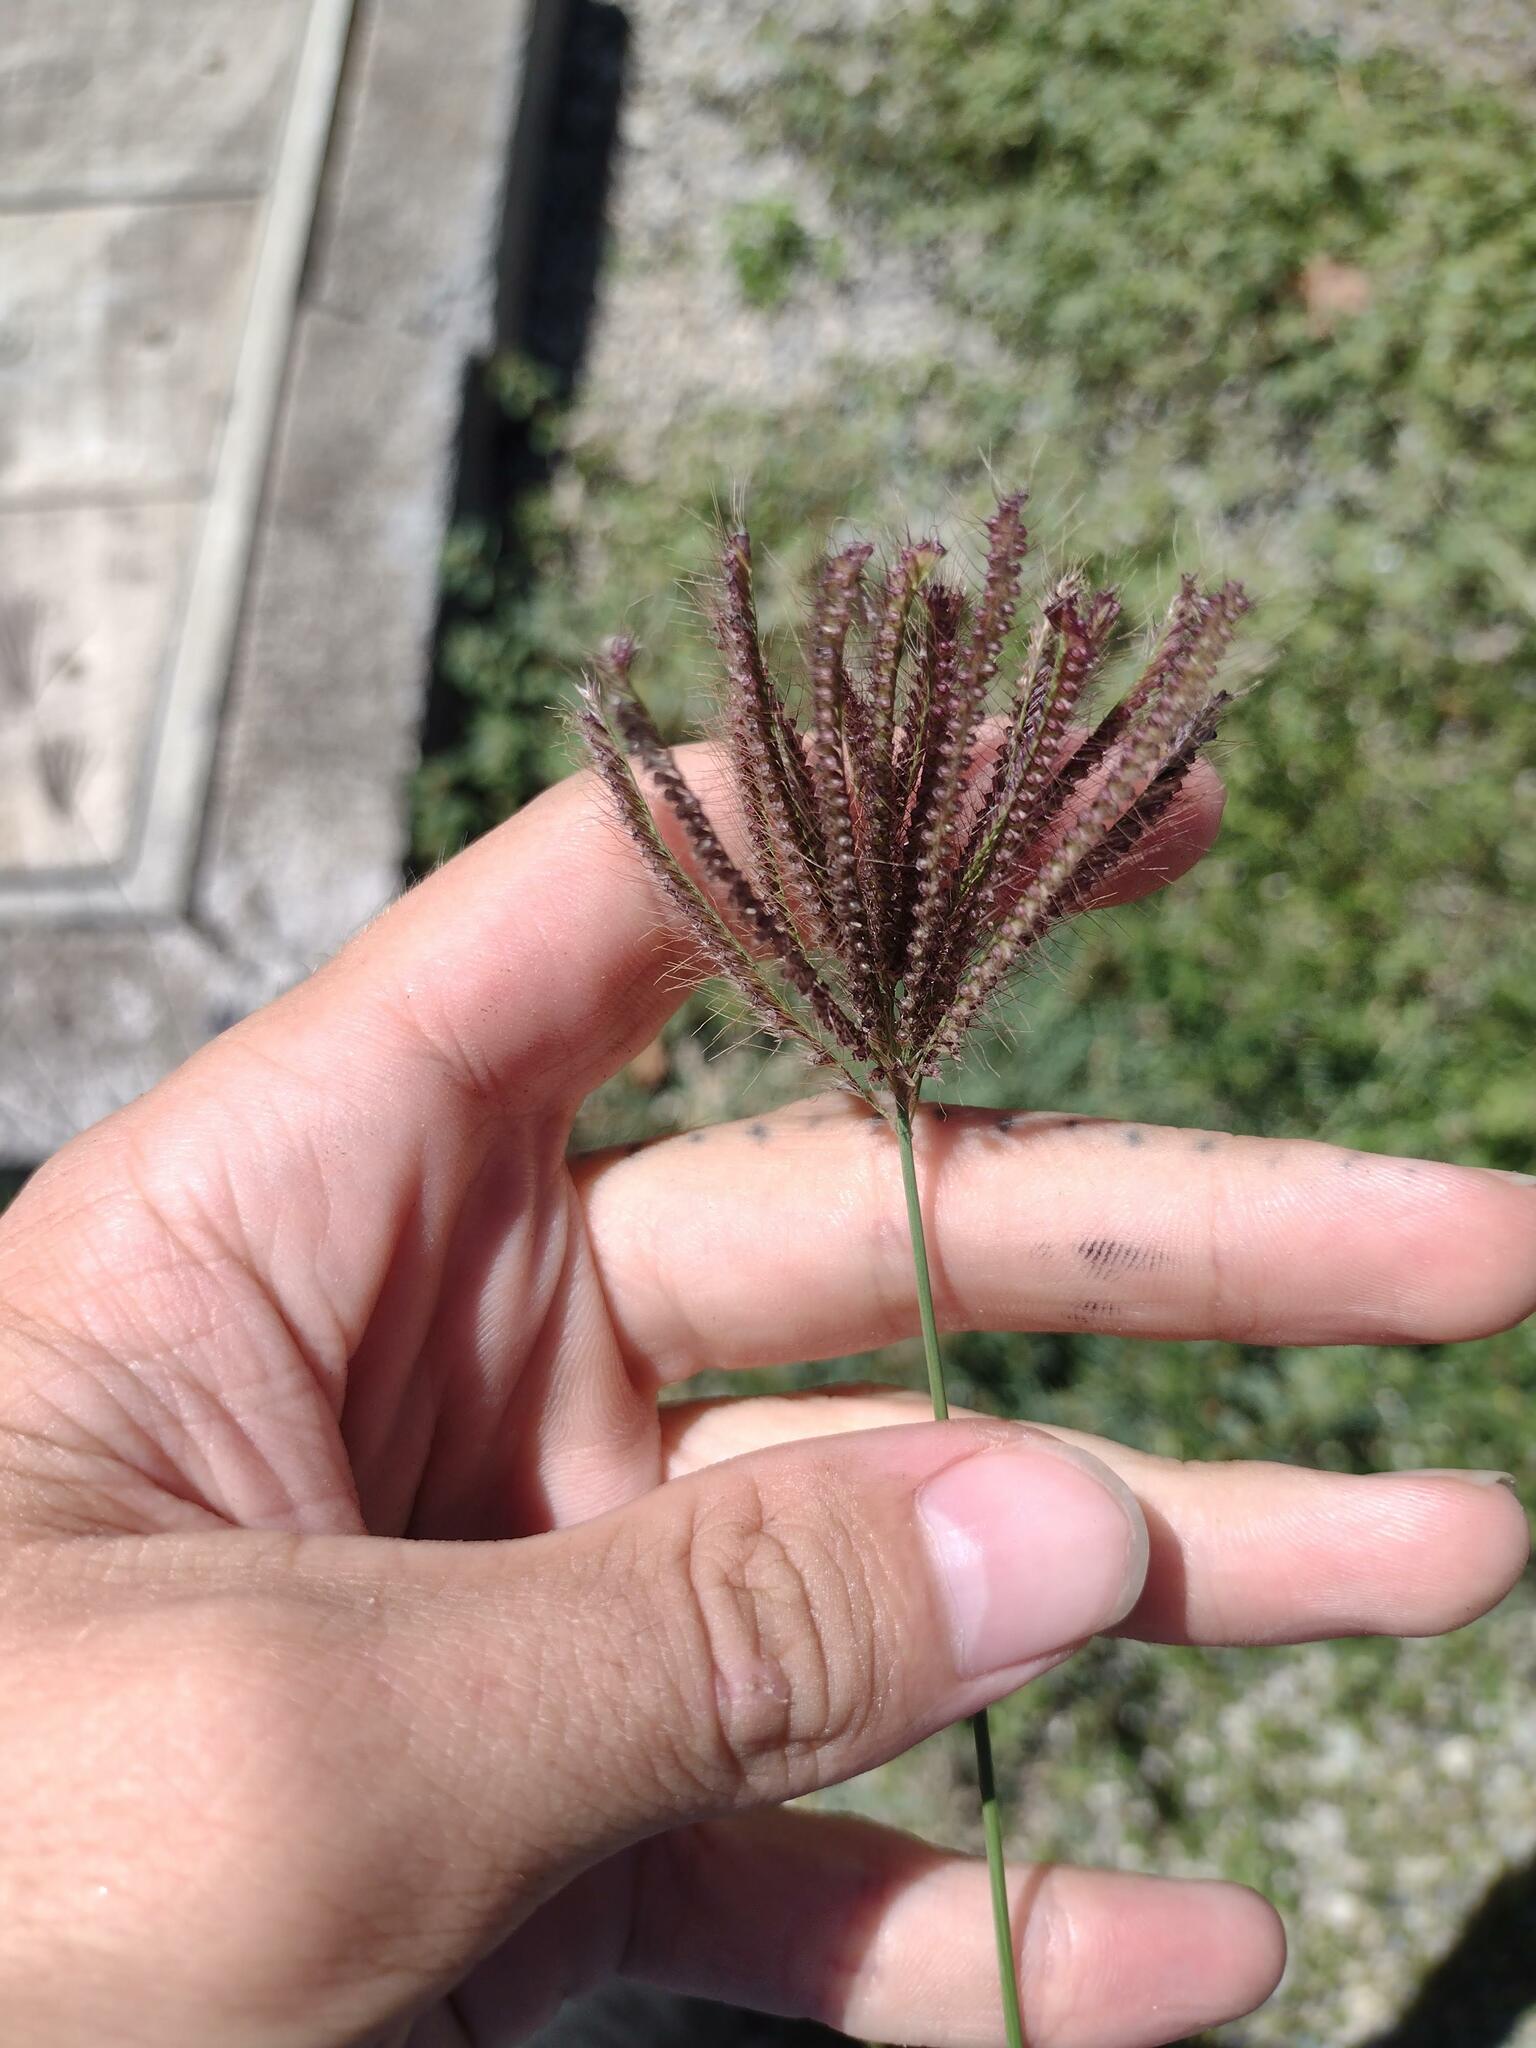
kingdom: Plantae
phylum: Tracheophyta
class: Liliopsida
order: Poales
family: Poaceae
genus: Chloris
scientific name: Chloris barbata
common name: Swollen fingergrass
